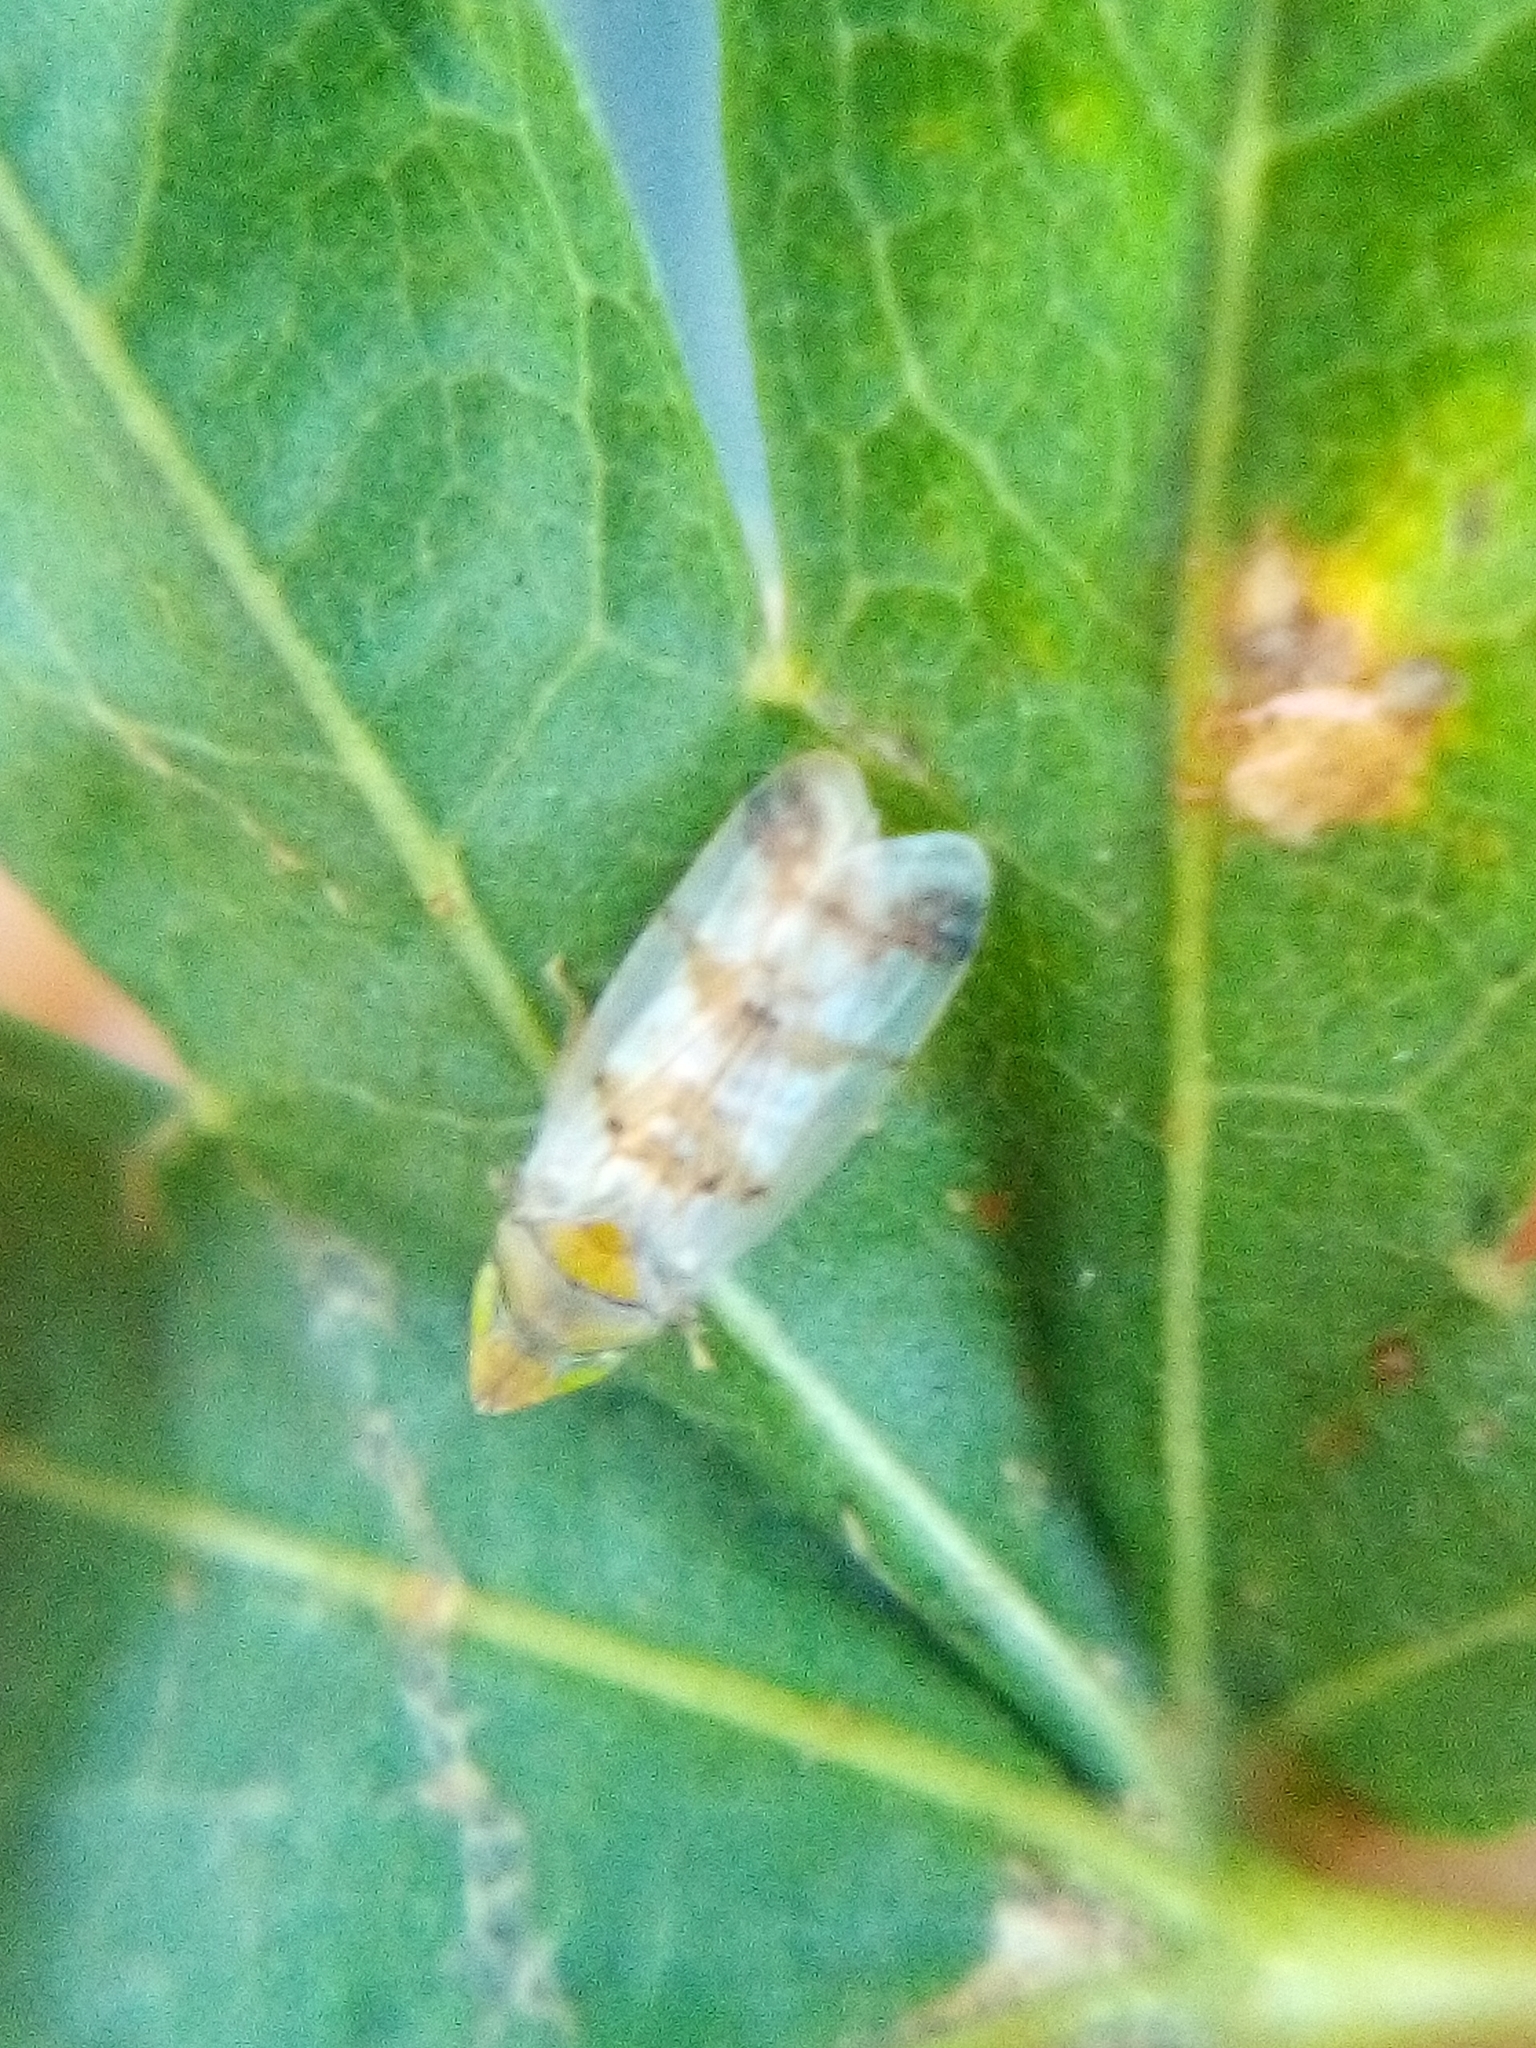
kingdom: Animalia
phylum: Arthropoda
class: Insecta
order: Hemiptera
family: Cicadellidae
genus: Japananus
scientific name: Japananus hyalinus
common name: The japanese maple leafhopper
